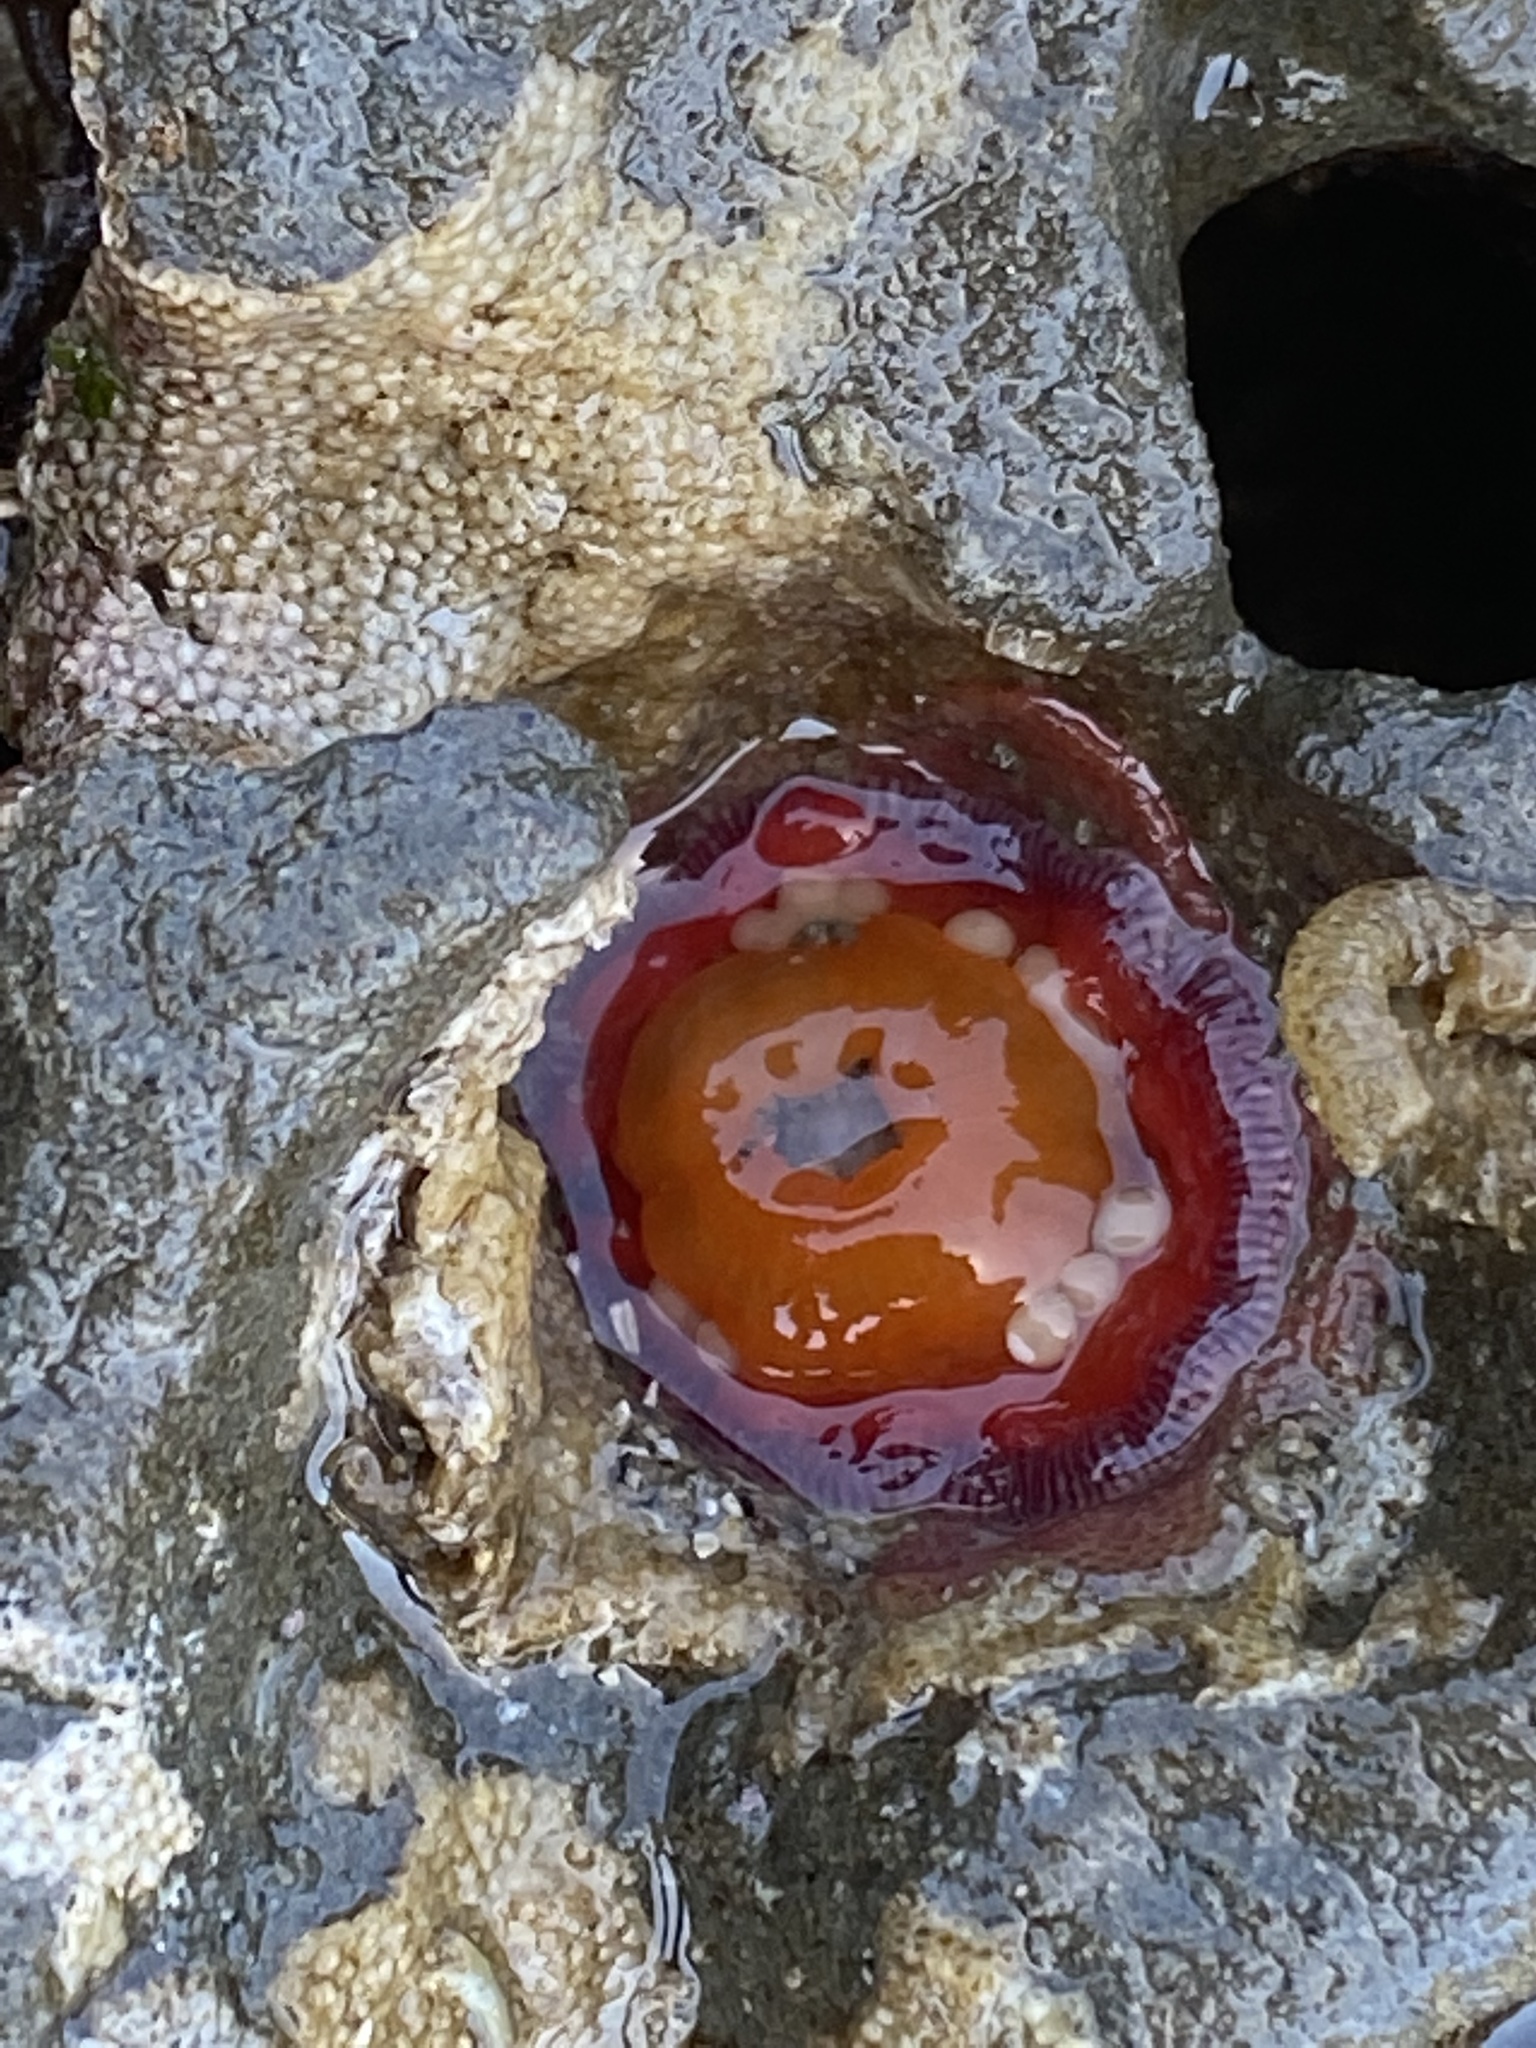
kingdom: Animalia
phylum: Cnidaria
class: Anthozoa
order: Actiniaria
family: Actiniidae
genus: Epiactis
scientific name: Epiactis prolifera
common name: Brooding anemone
